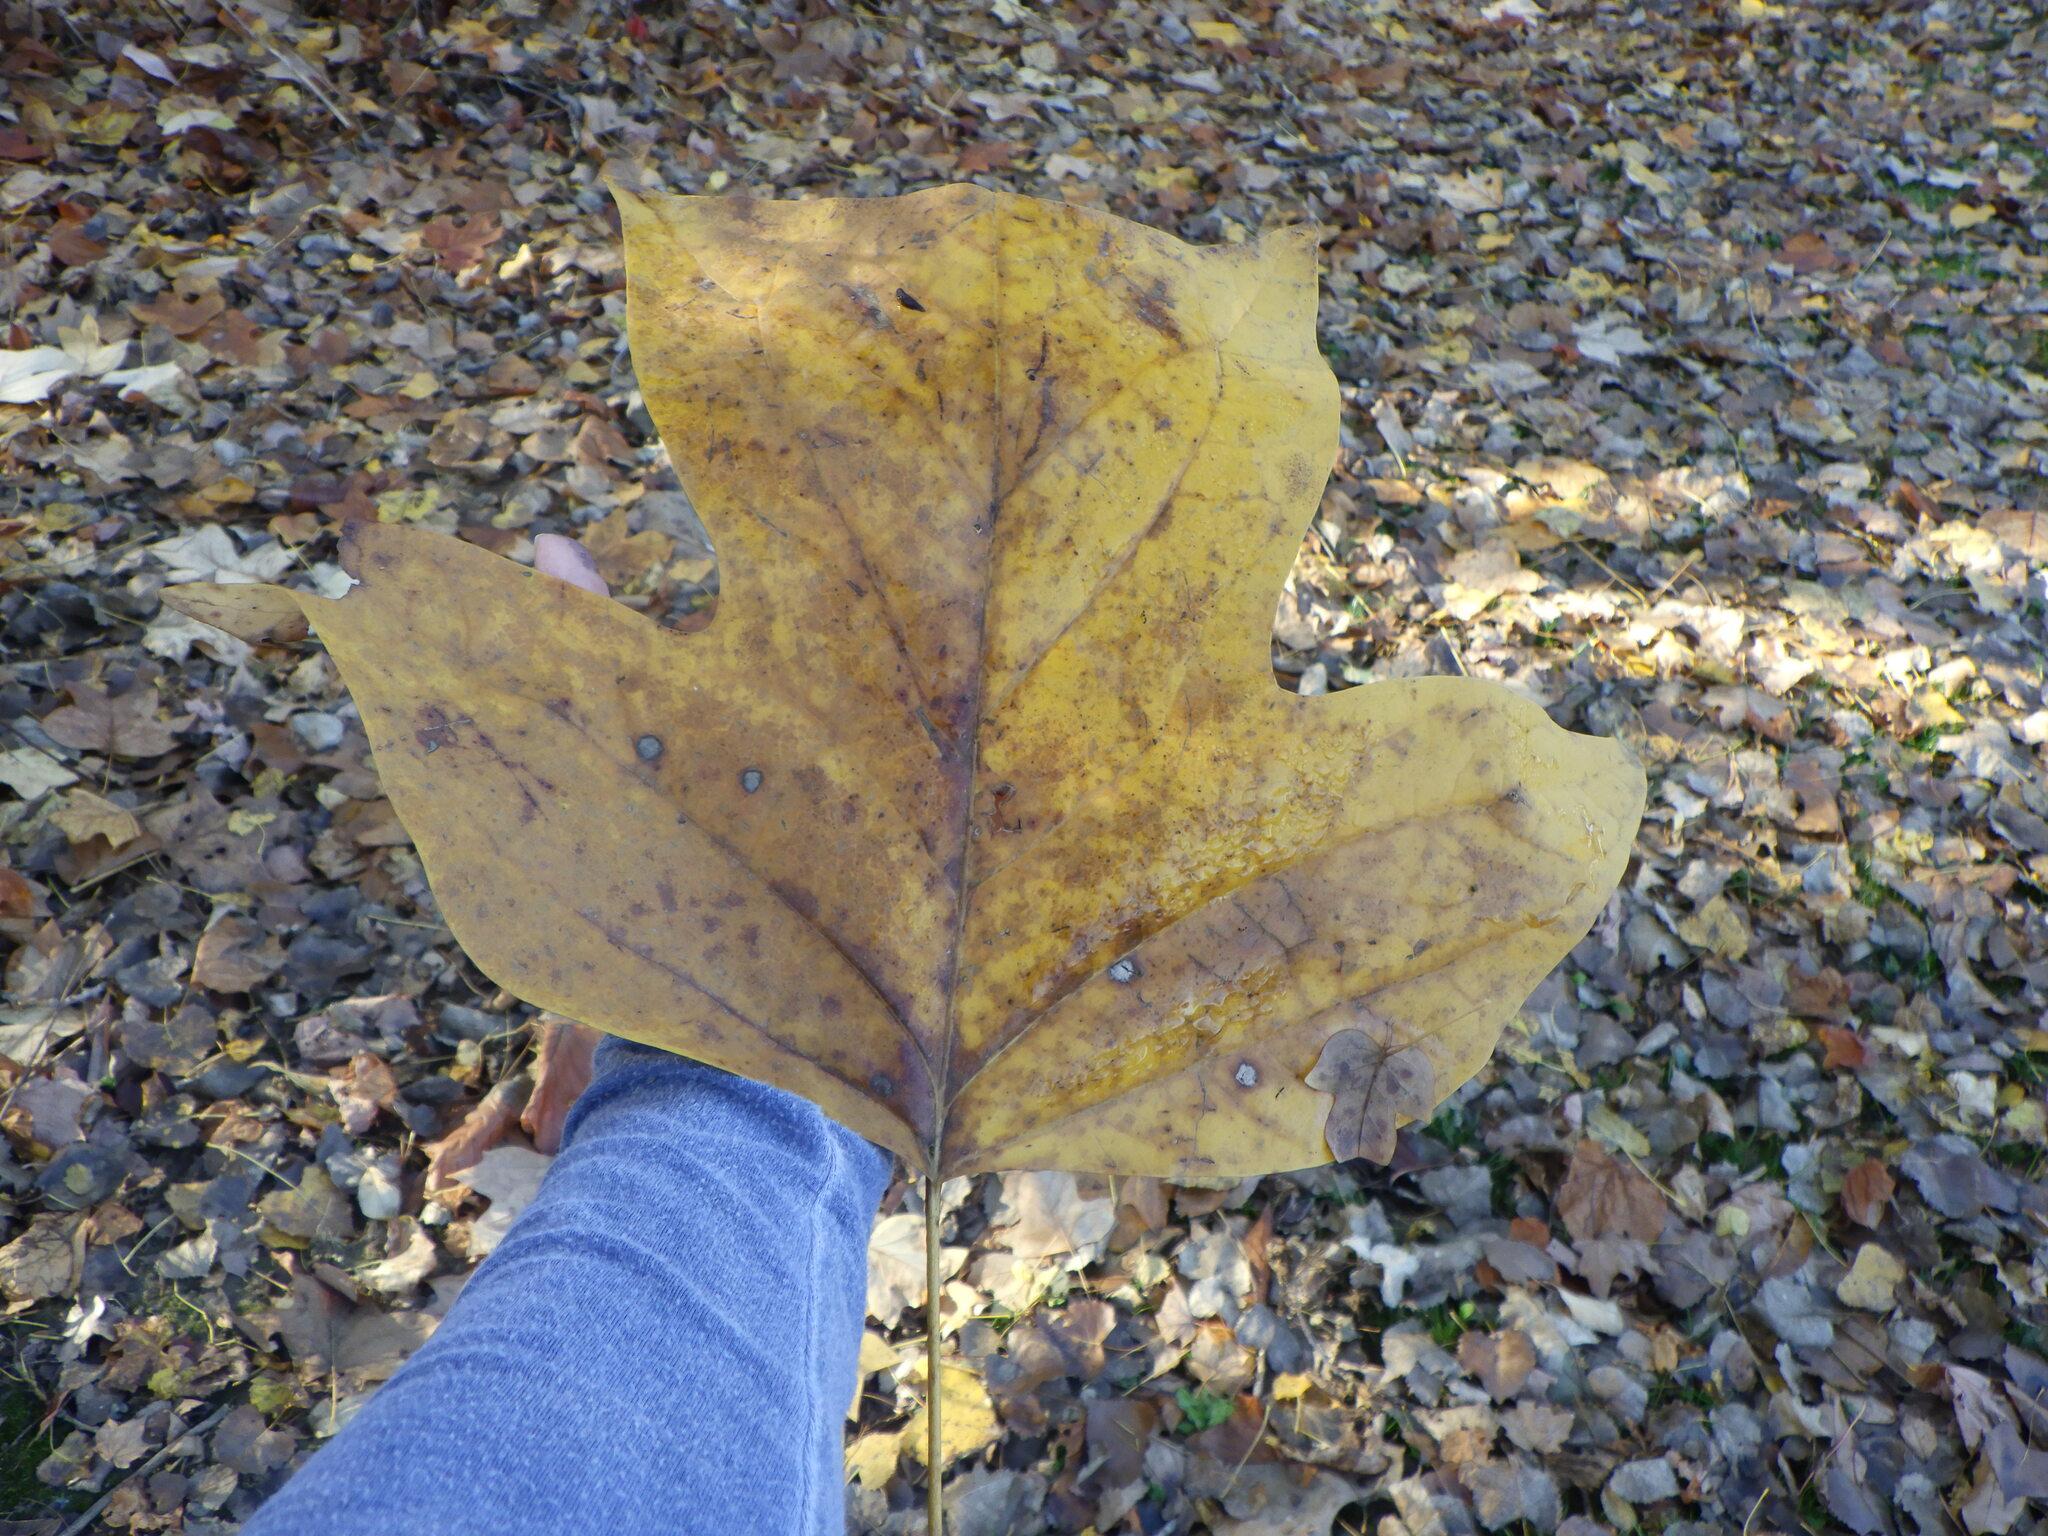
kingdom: Plantae
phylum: Tracheophyta
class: Magnoliopsida
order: Magnoliales
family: Magnoliaceae
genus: Liriodendron
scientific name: Liriodendron tulipifera
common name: Tulip tree
